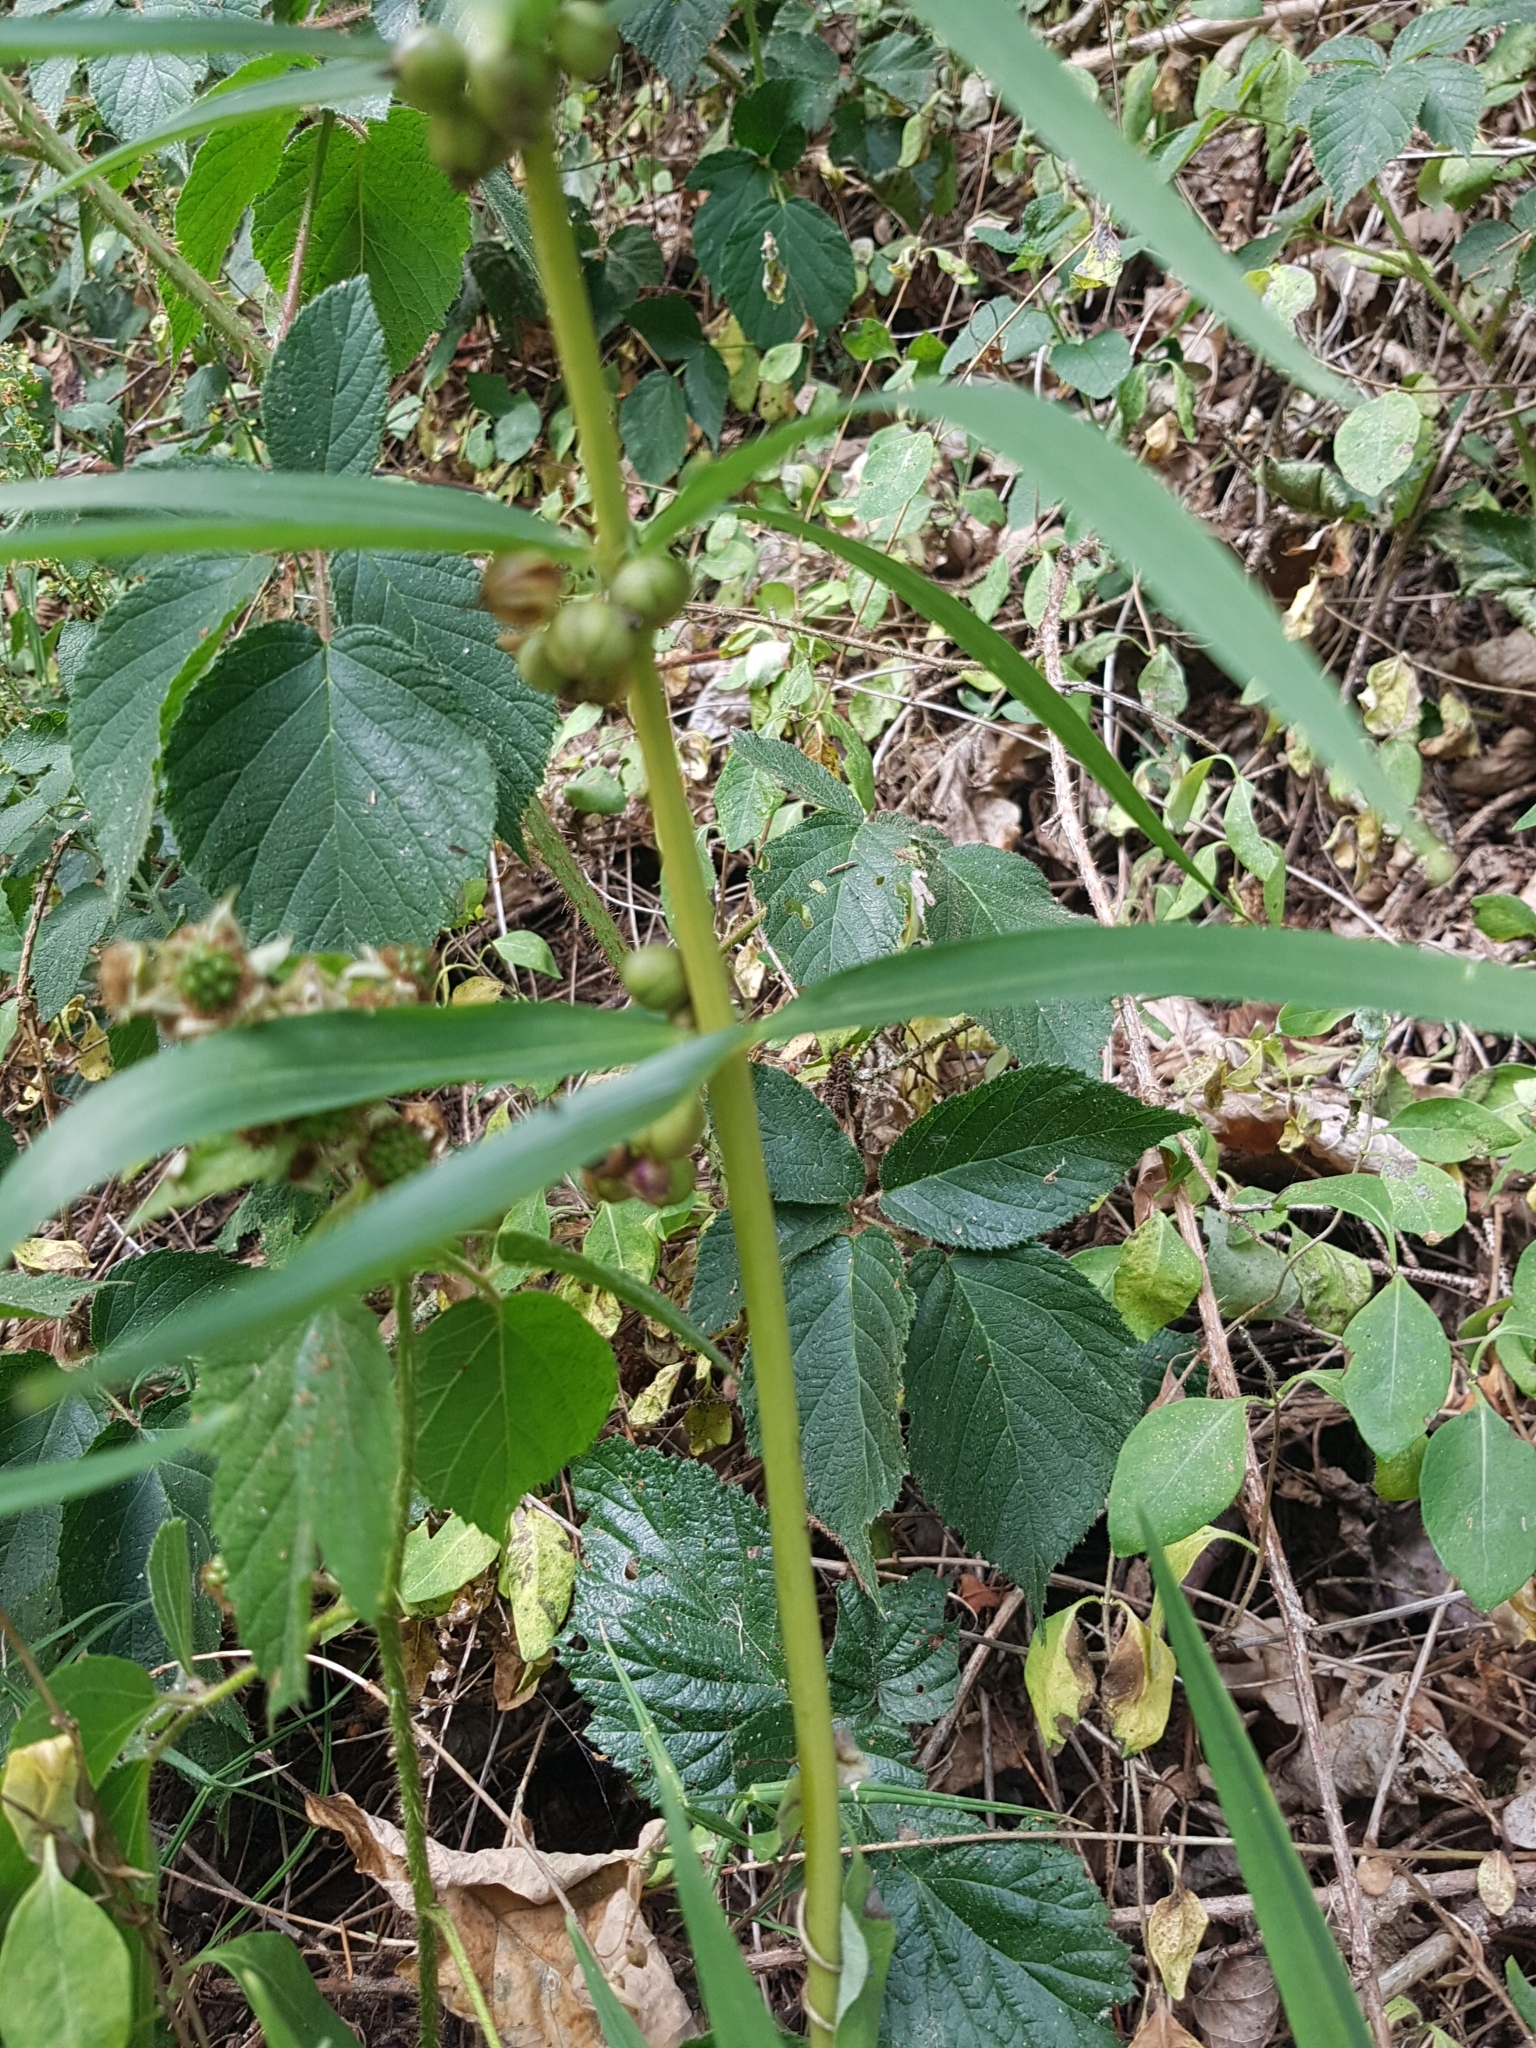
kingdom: Plantae
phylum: Tracheophyta
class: Liliopsida
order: Asparagales
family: Asparagaceae
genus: Polygonatum
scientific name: Polygonatum verticillatum
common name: Whorled solomon's-seal
